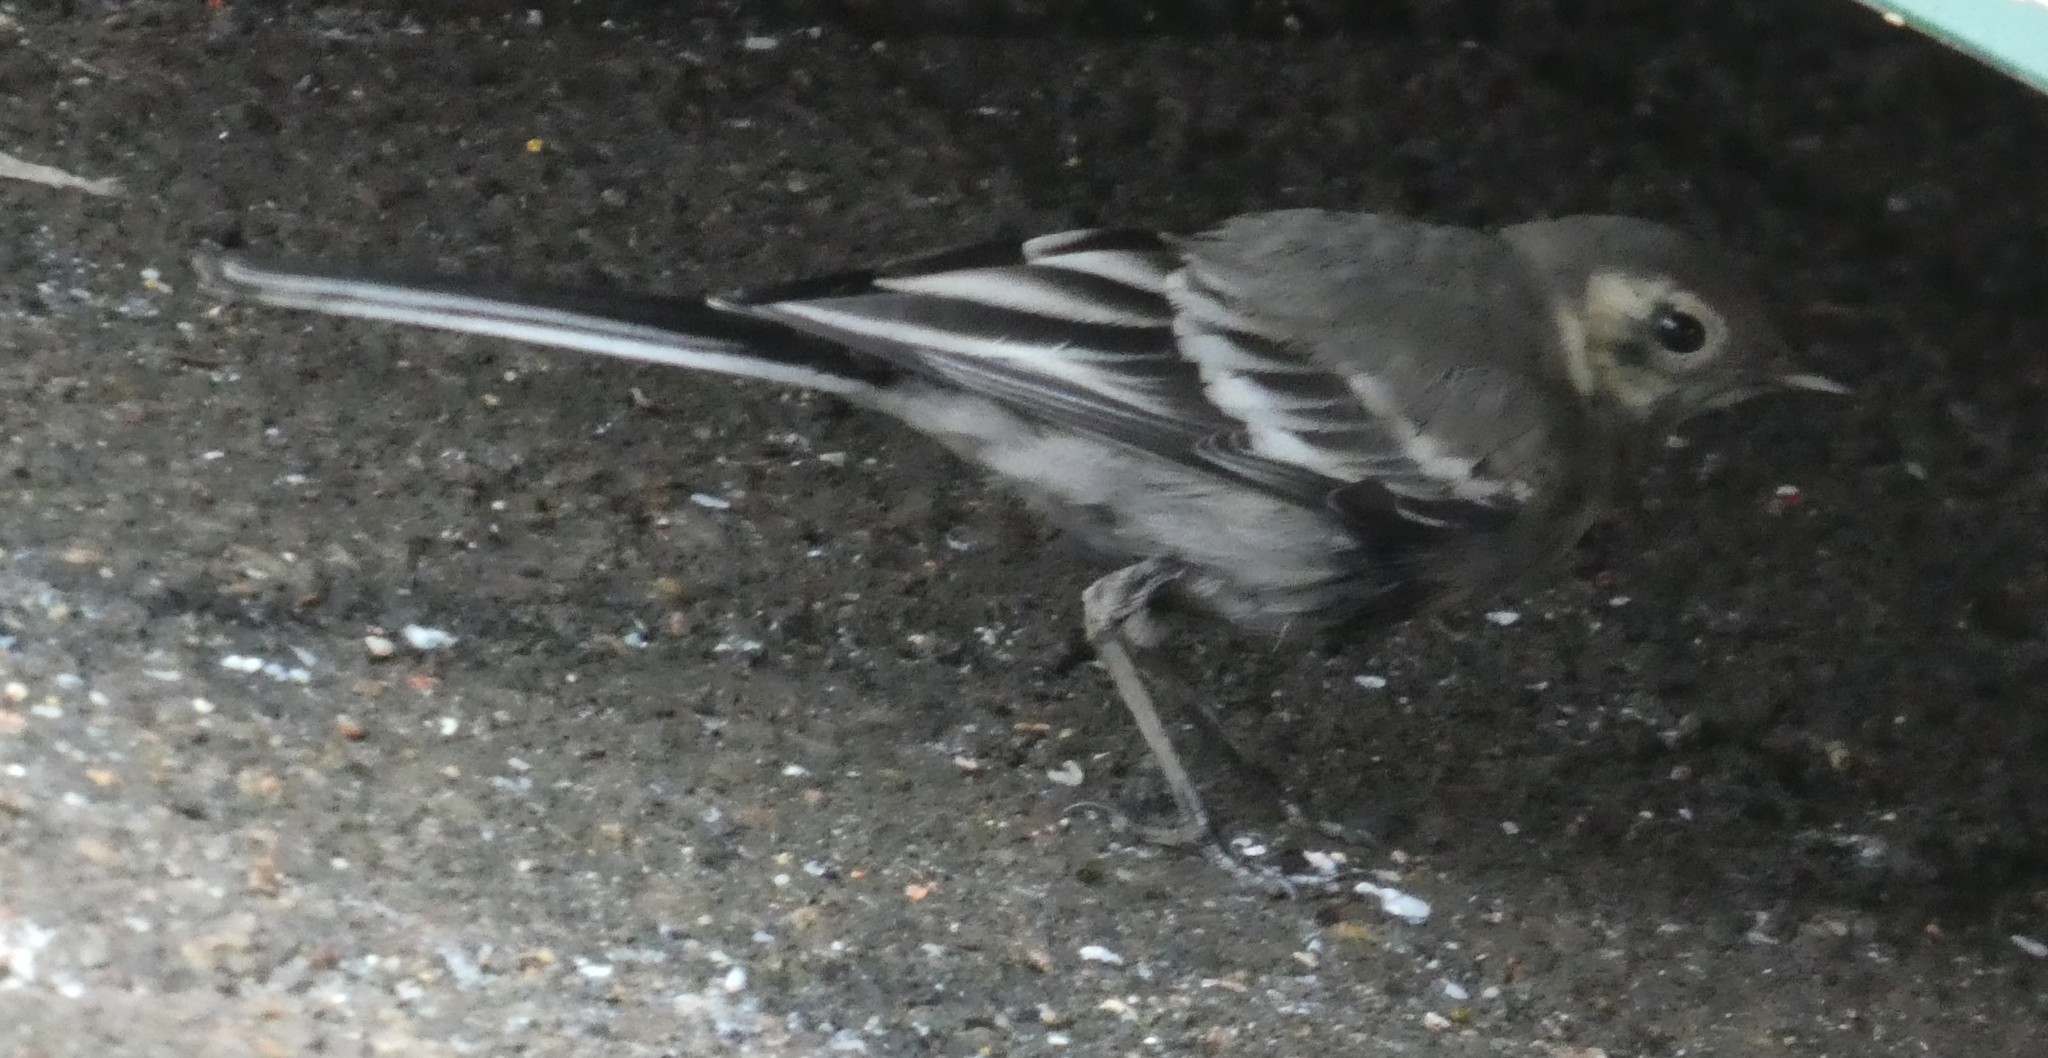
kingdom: Animalia
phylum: Chordata
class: Aves
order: Passeriformes
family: Motacillidae
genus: Motacilla
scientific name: Motacilla alba
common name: White wagtail
